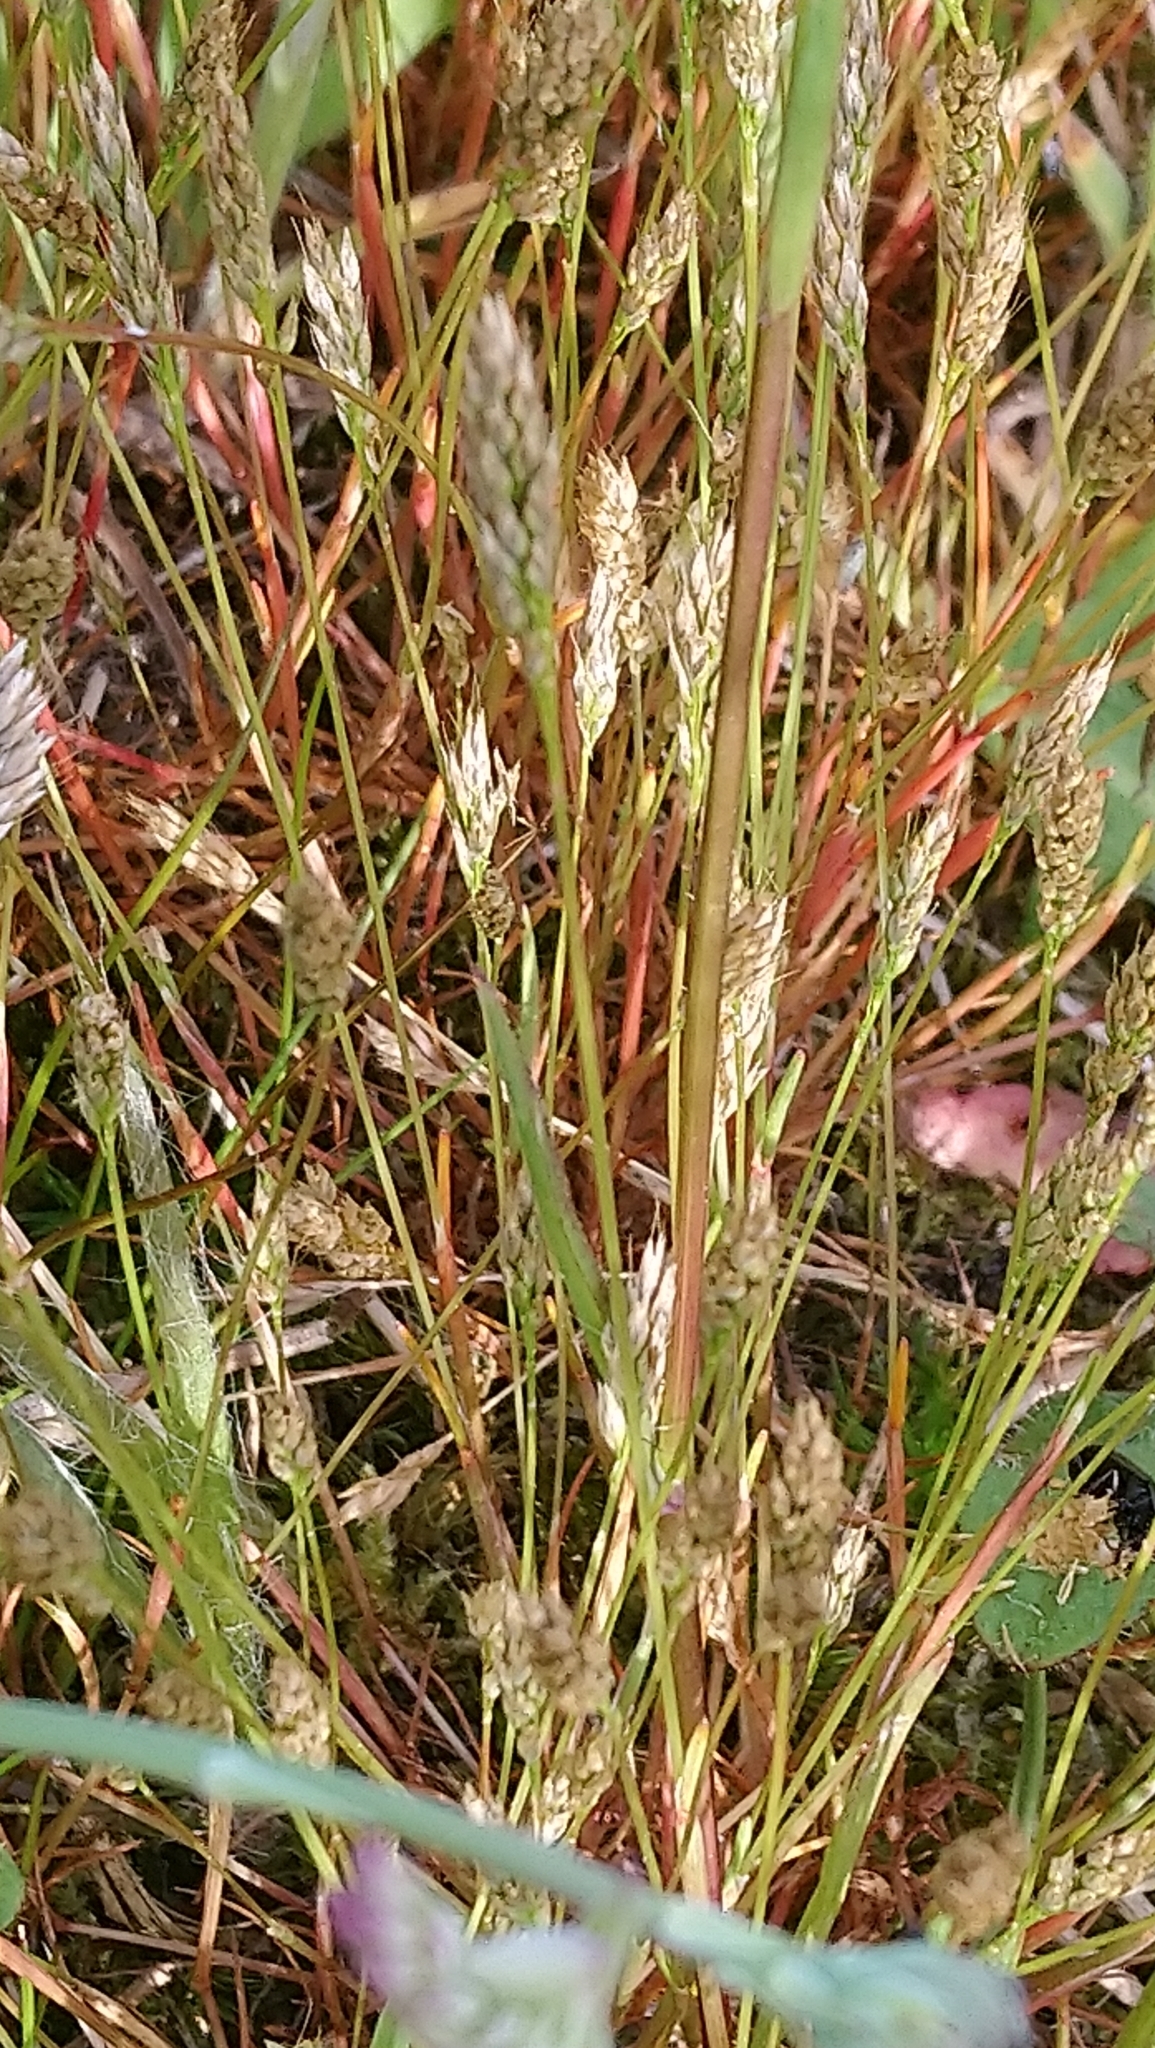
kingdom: Plantae
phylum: Tracheophyta
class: Liliopsida
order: Poales
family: Poaceae
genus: Aira
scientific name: Aira praecox
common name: Early hair-grass
